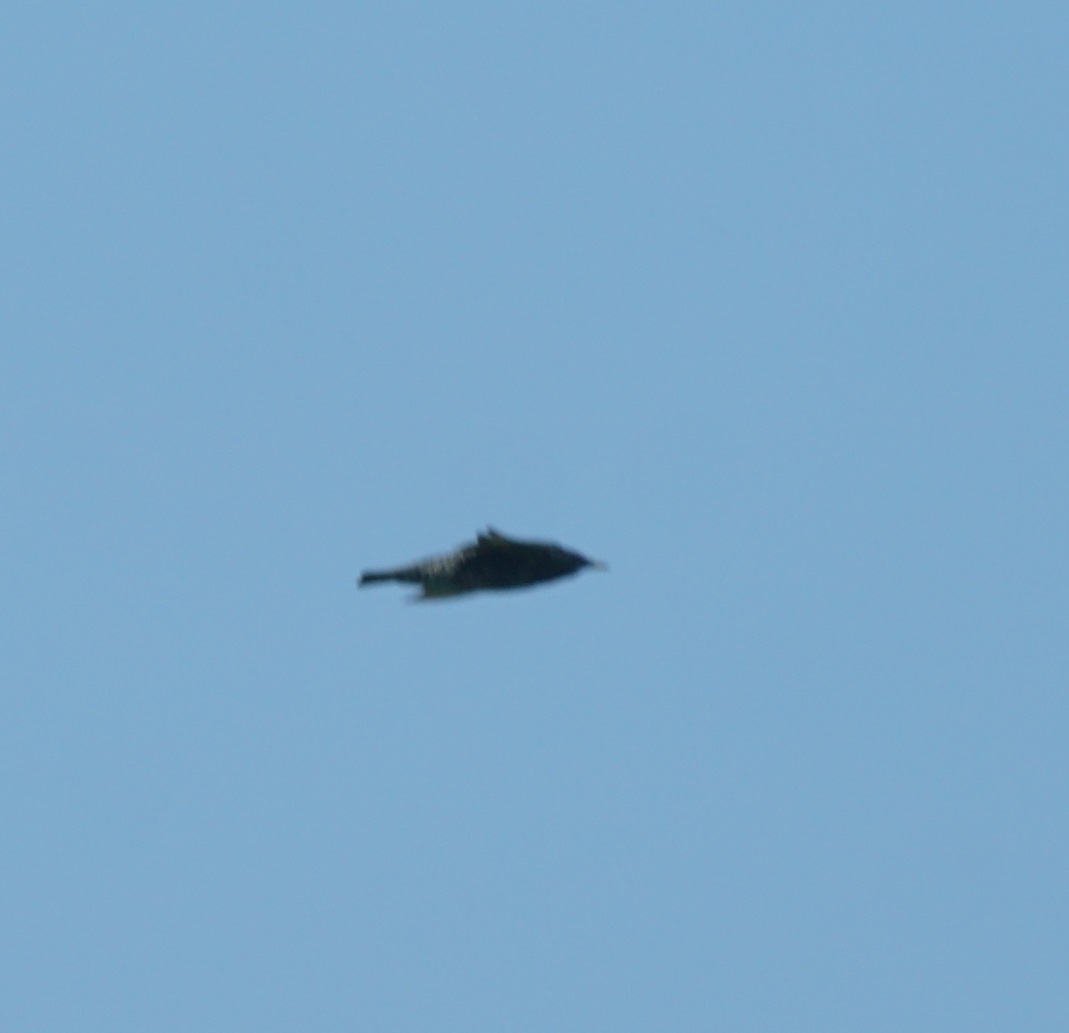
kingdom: Animalia
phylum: Chordata
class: Aves
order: Passeriformes
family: Sturnidae
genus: Sturnus
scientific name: Sturnus vulgaris
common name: Common starling
